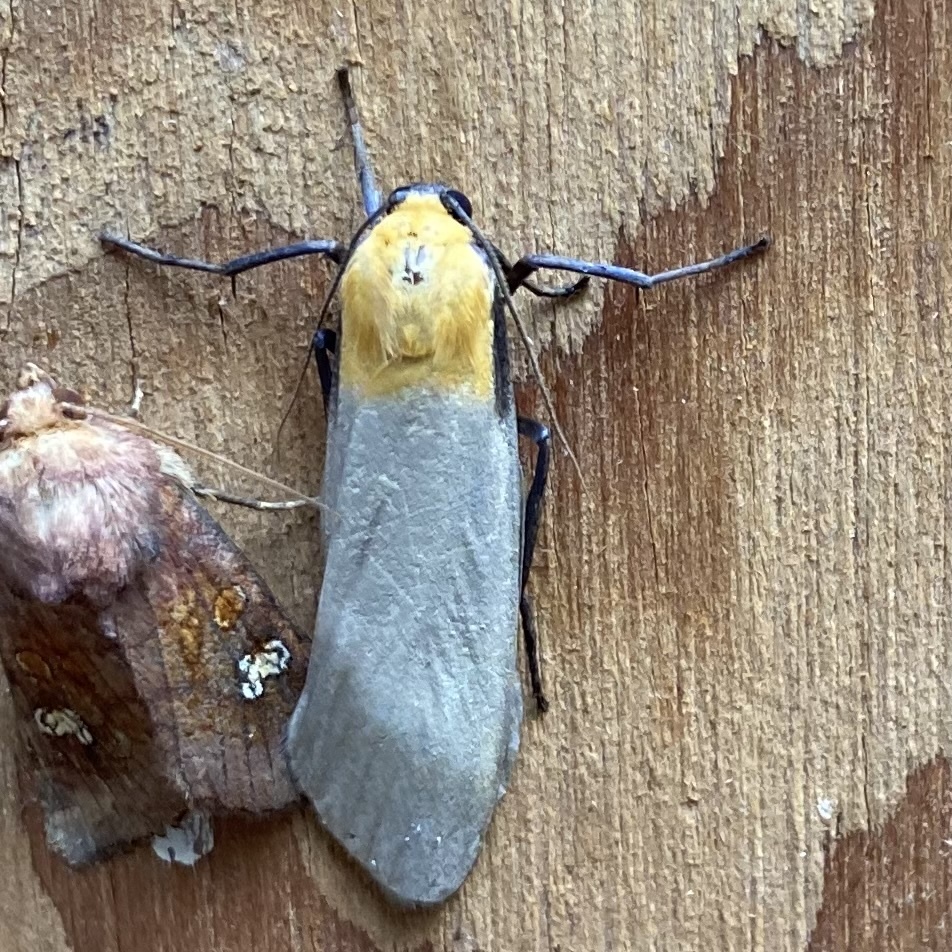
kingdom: Animalia
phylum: Arthropoda
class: Insecta
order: Lepidoptera
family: Erebidae
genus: Lithosia
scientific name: Lithosia quadra
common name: Four-spotted footman
